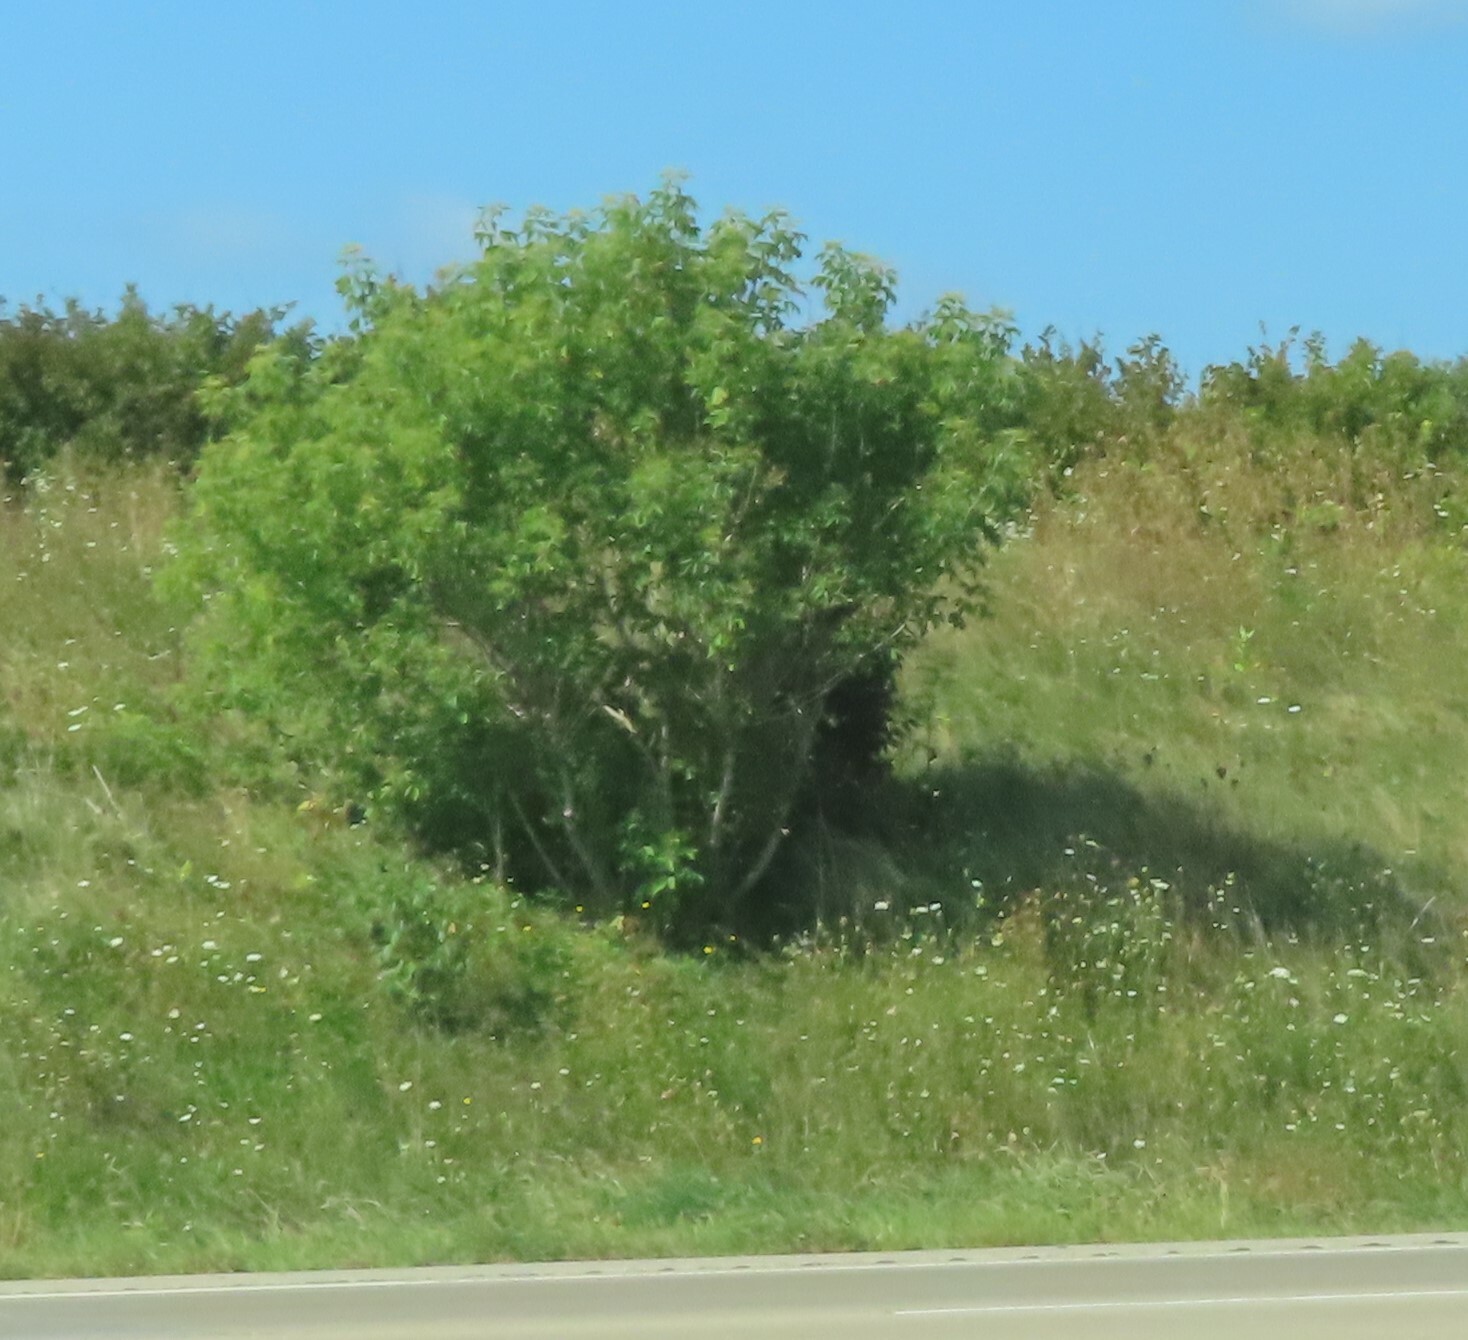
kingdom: Plantae
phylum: Tracheophyta
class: Magnoliopsida
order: Sapindales
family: Sapindaceae
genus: Acer
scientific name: Acer negundo
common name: Ashleaf maple
